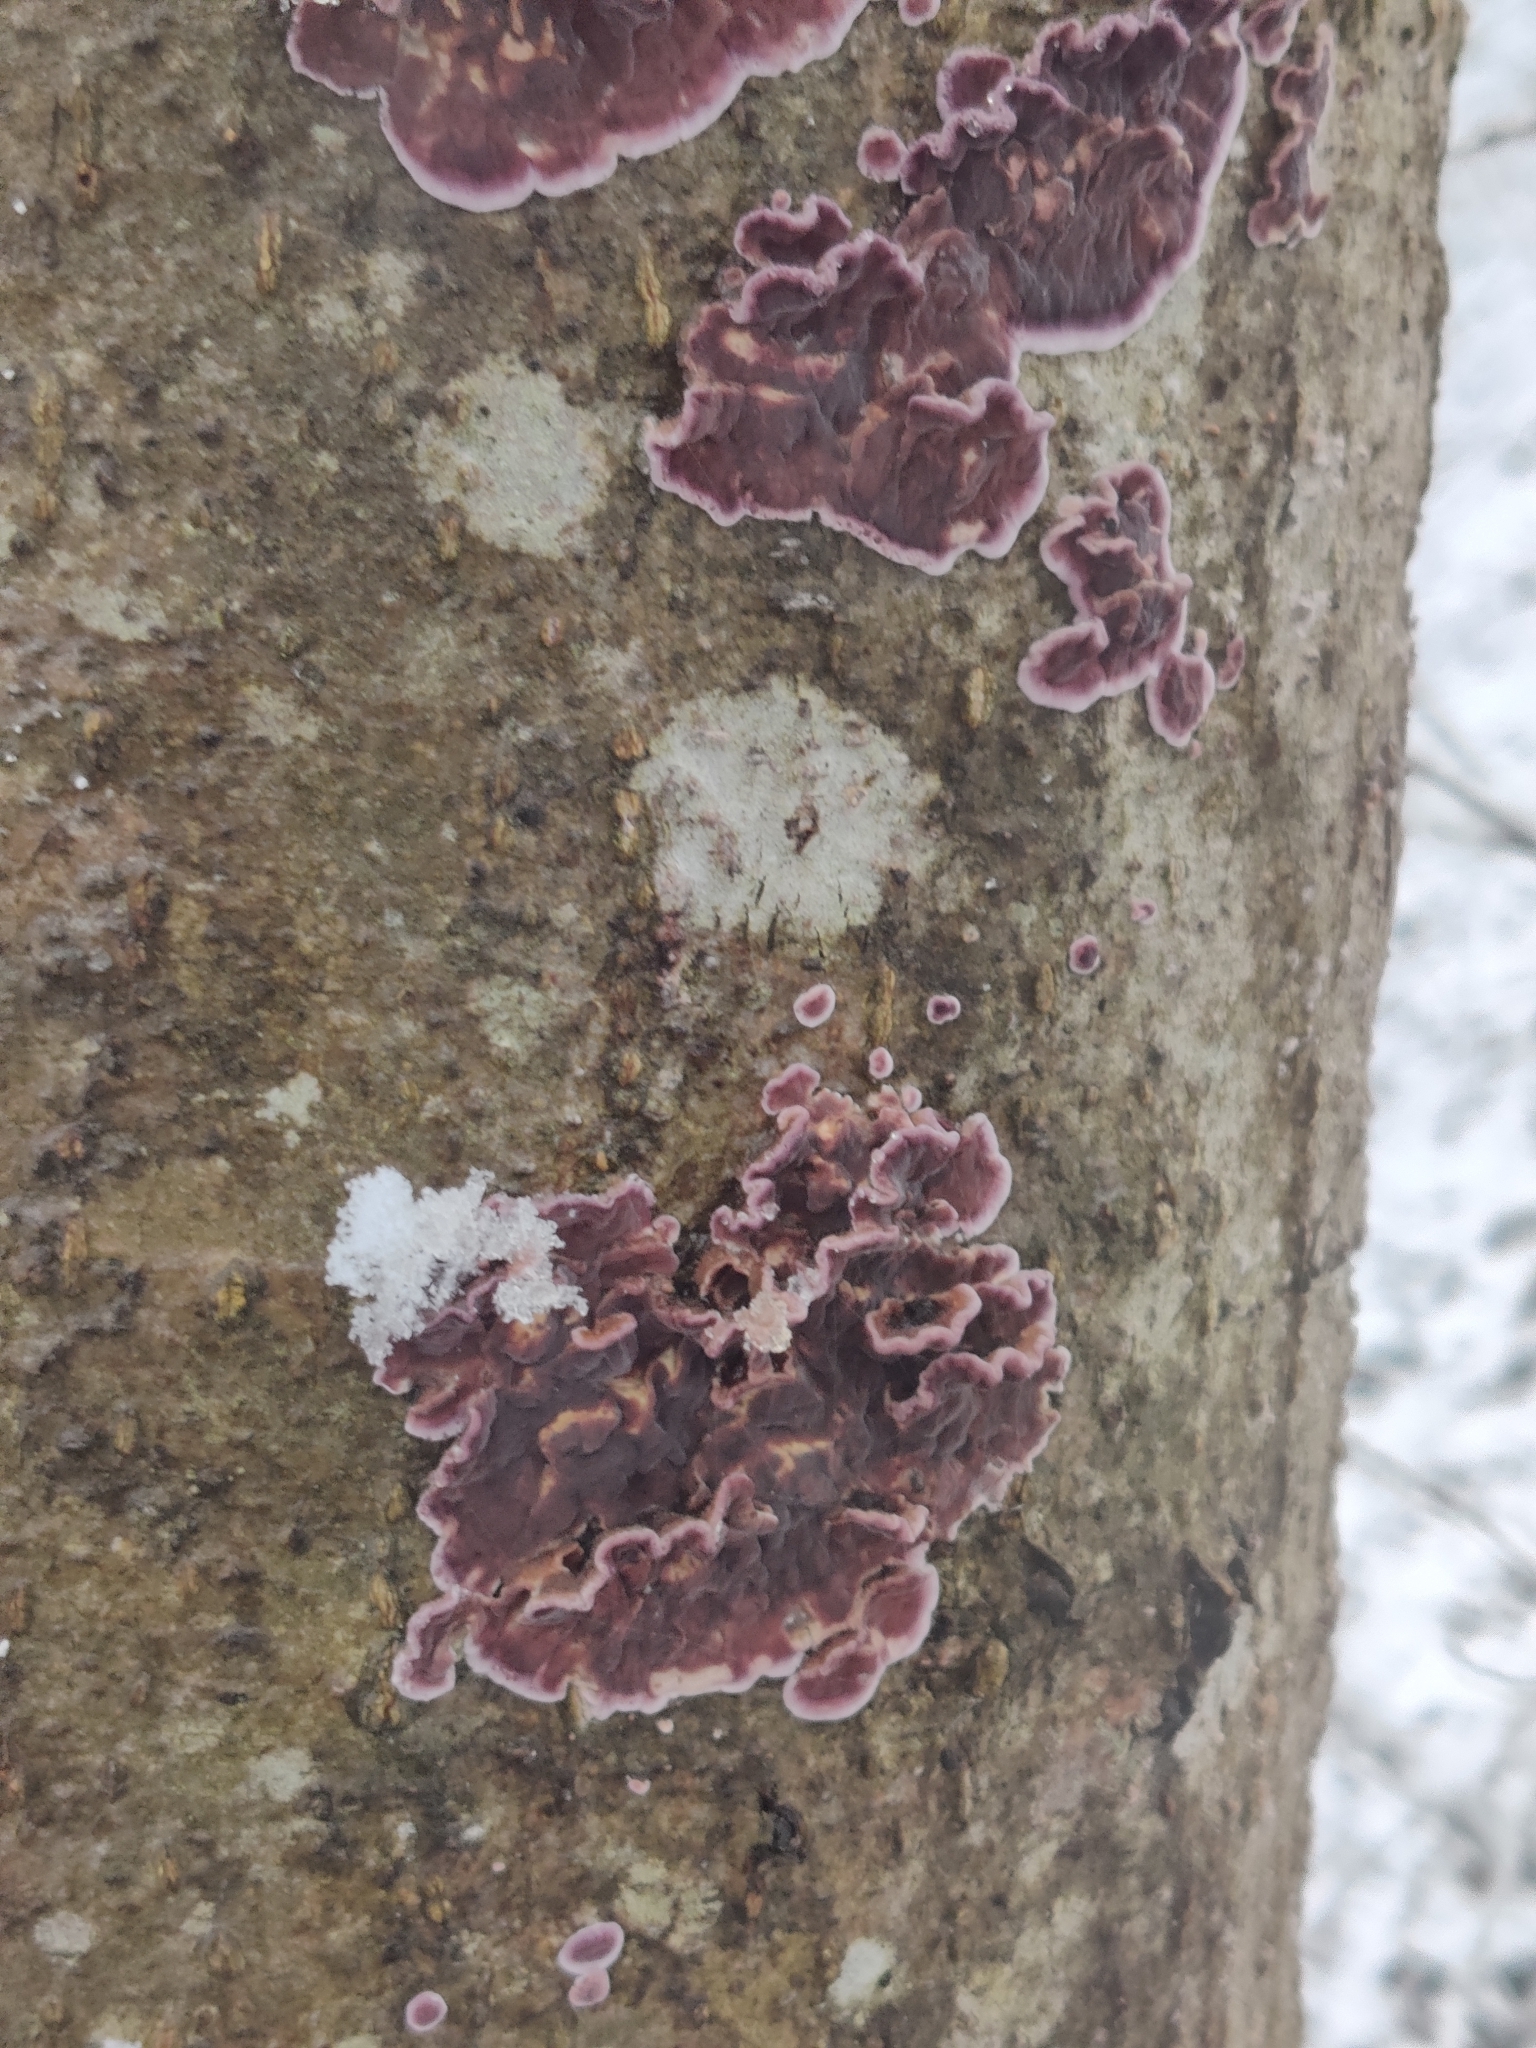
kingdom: Fungi
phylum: Basidiomycota
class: Agaricomycetes
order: Agaricales
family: Cyphellaceae
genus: Chondrostereum
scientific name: Chondrostereum purpureum
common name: Silver leaf disease
